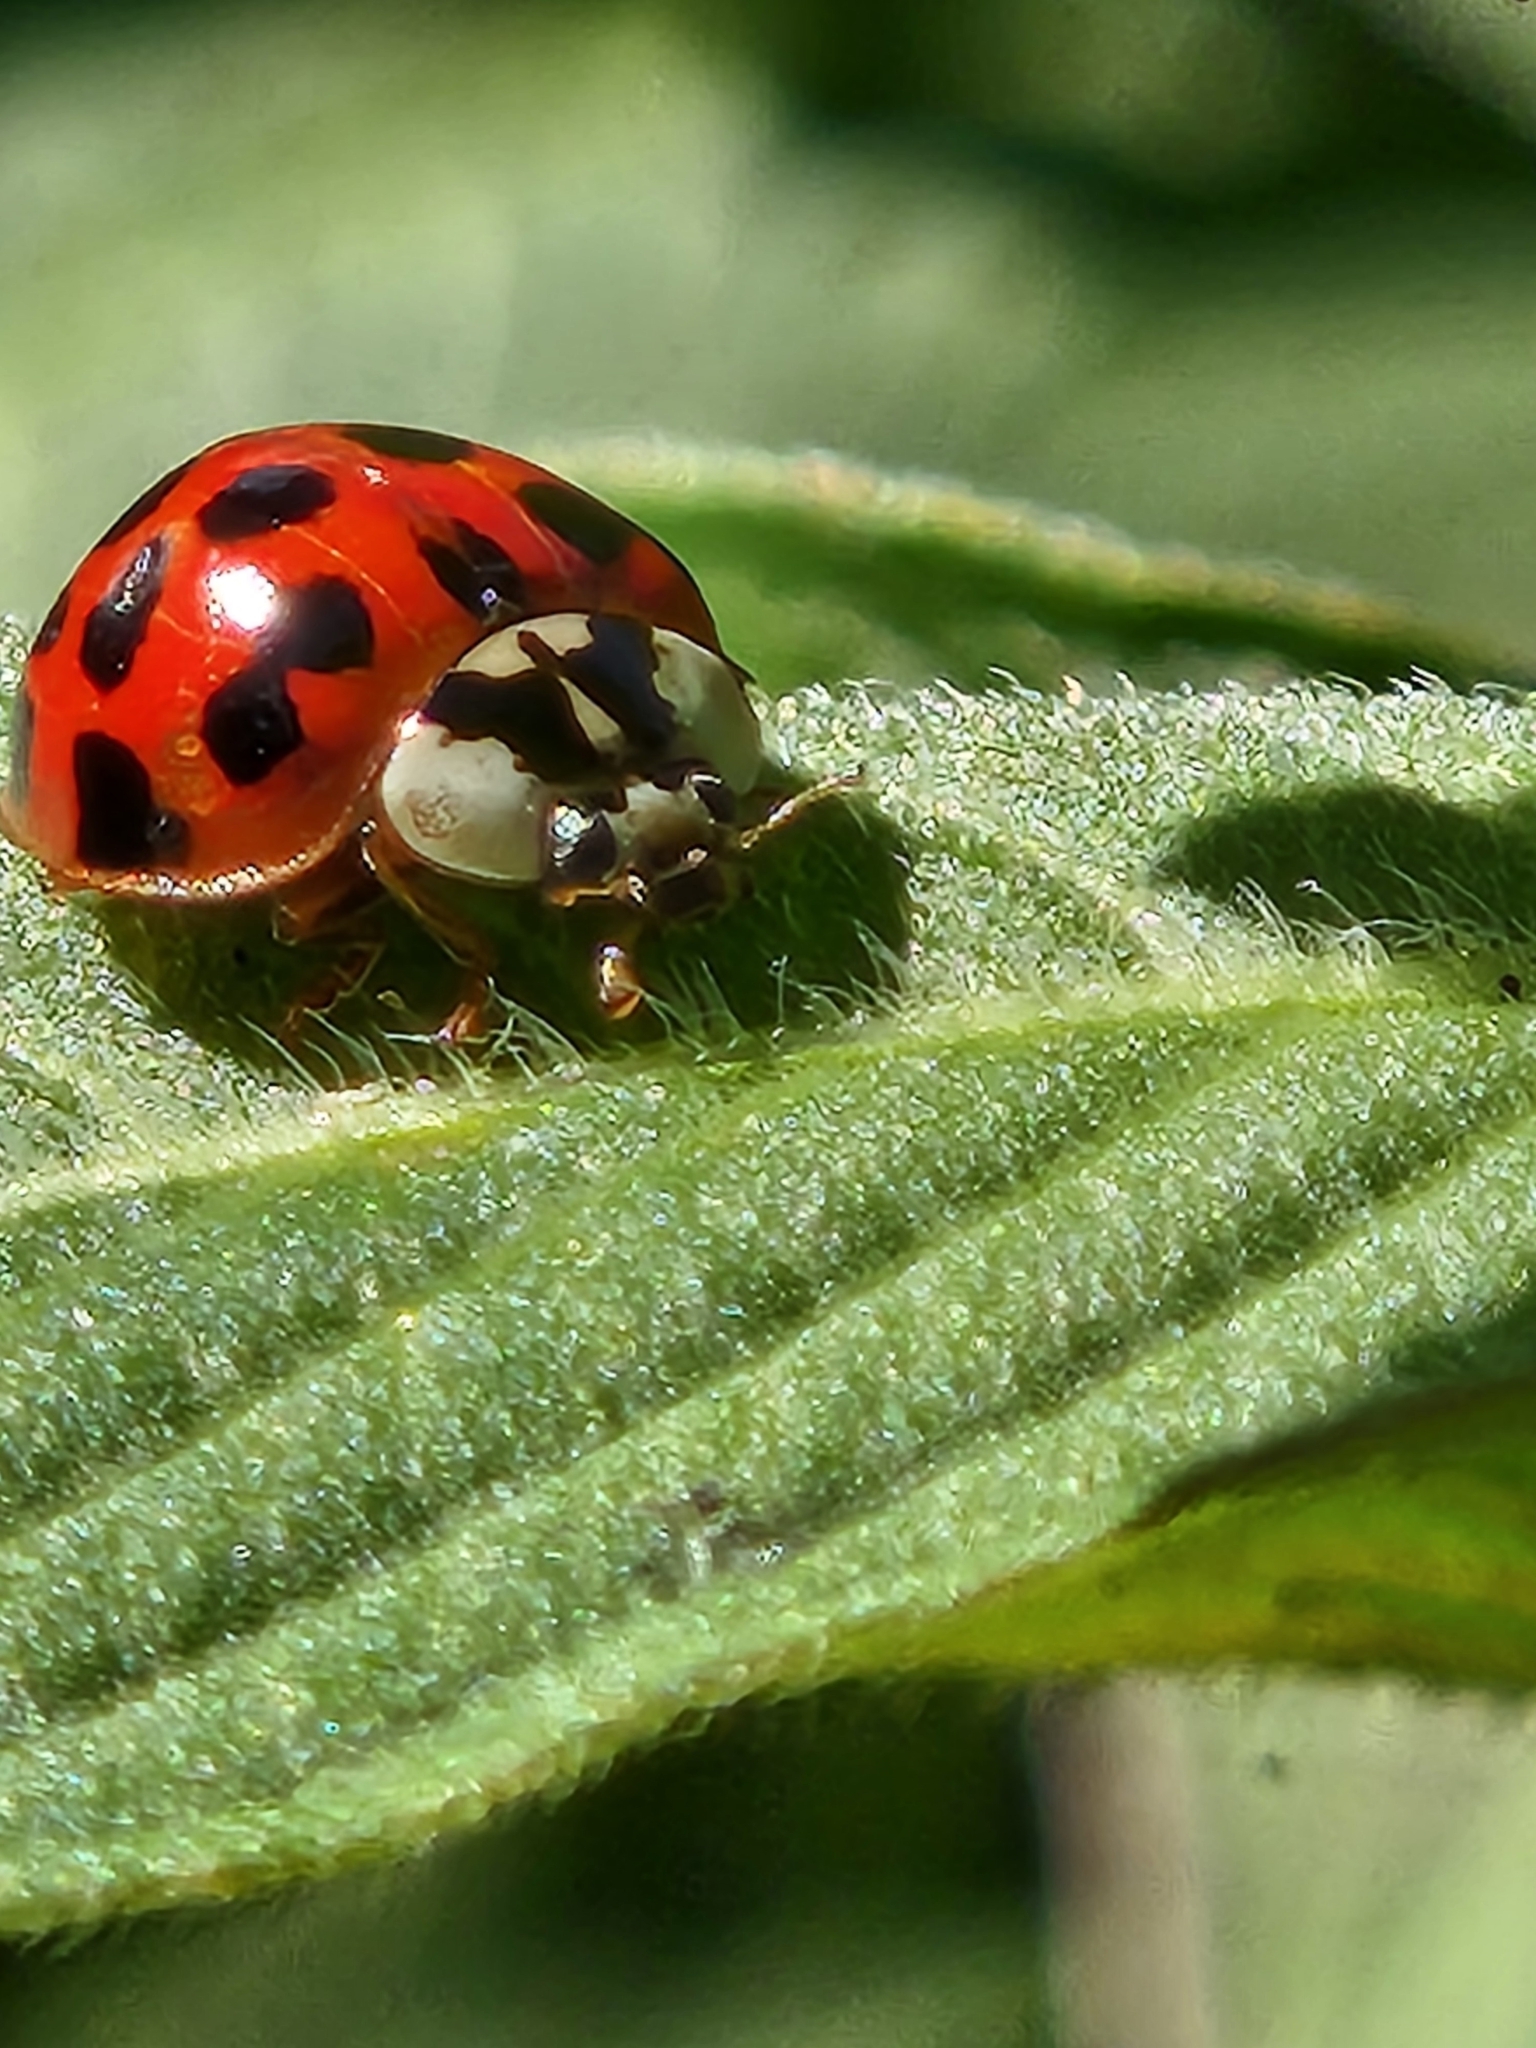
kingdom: Animalia
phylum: Arthropoda
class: Insecta
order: Coleoptera
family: Coccinellidae
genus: Harmonia
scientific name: Harmonia axyridis
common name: Harlequin ladybird
